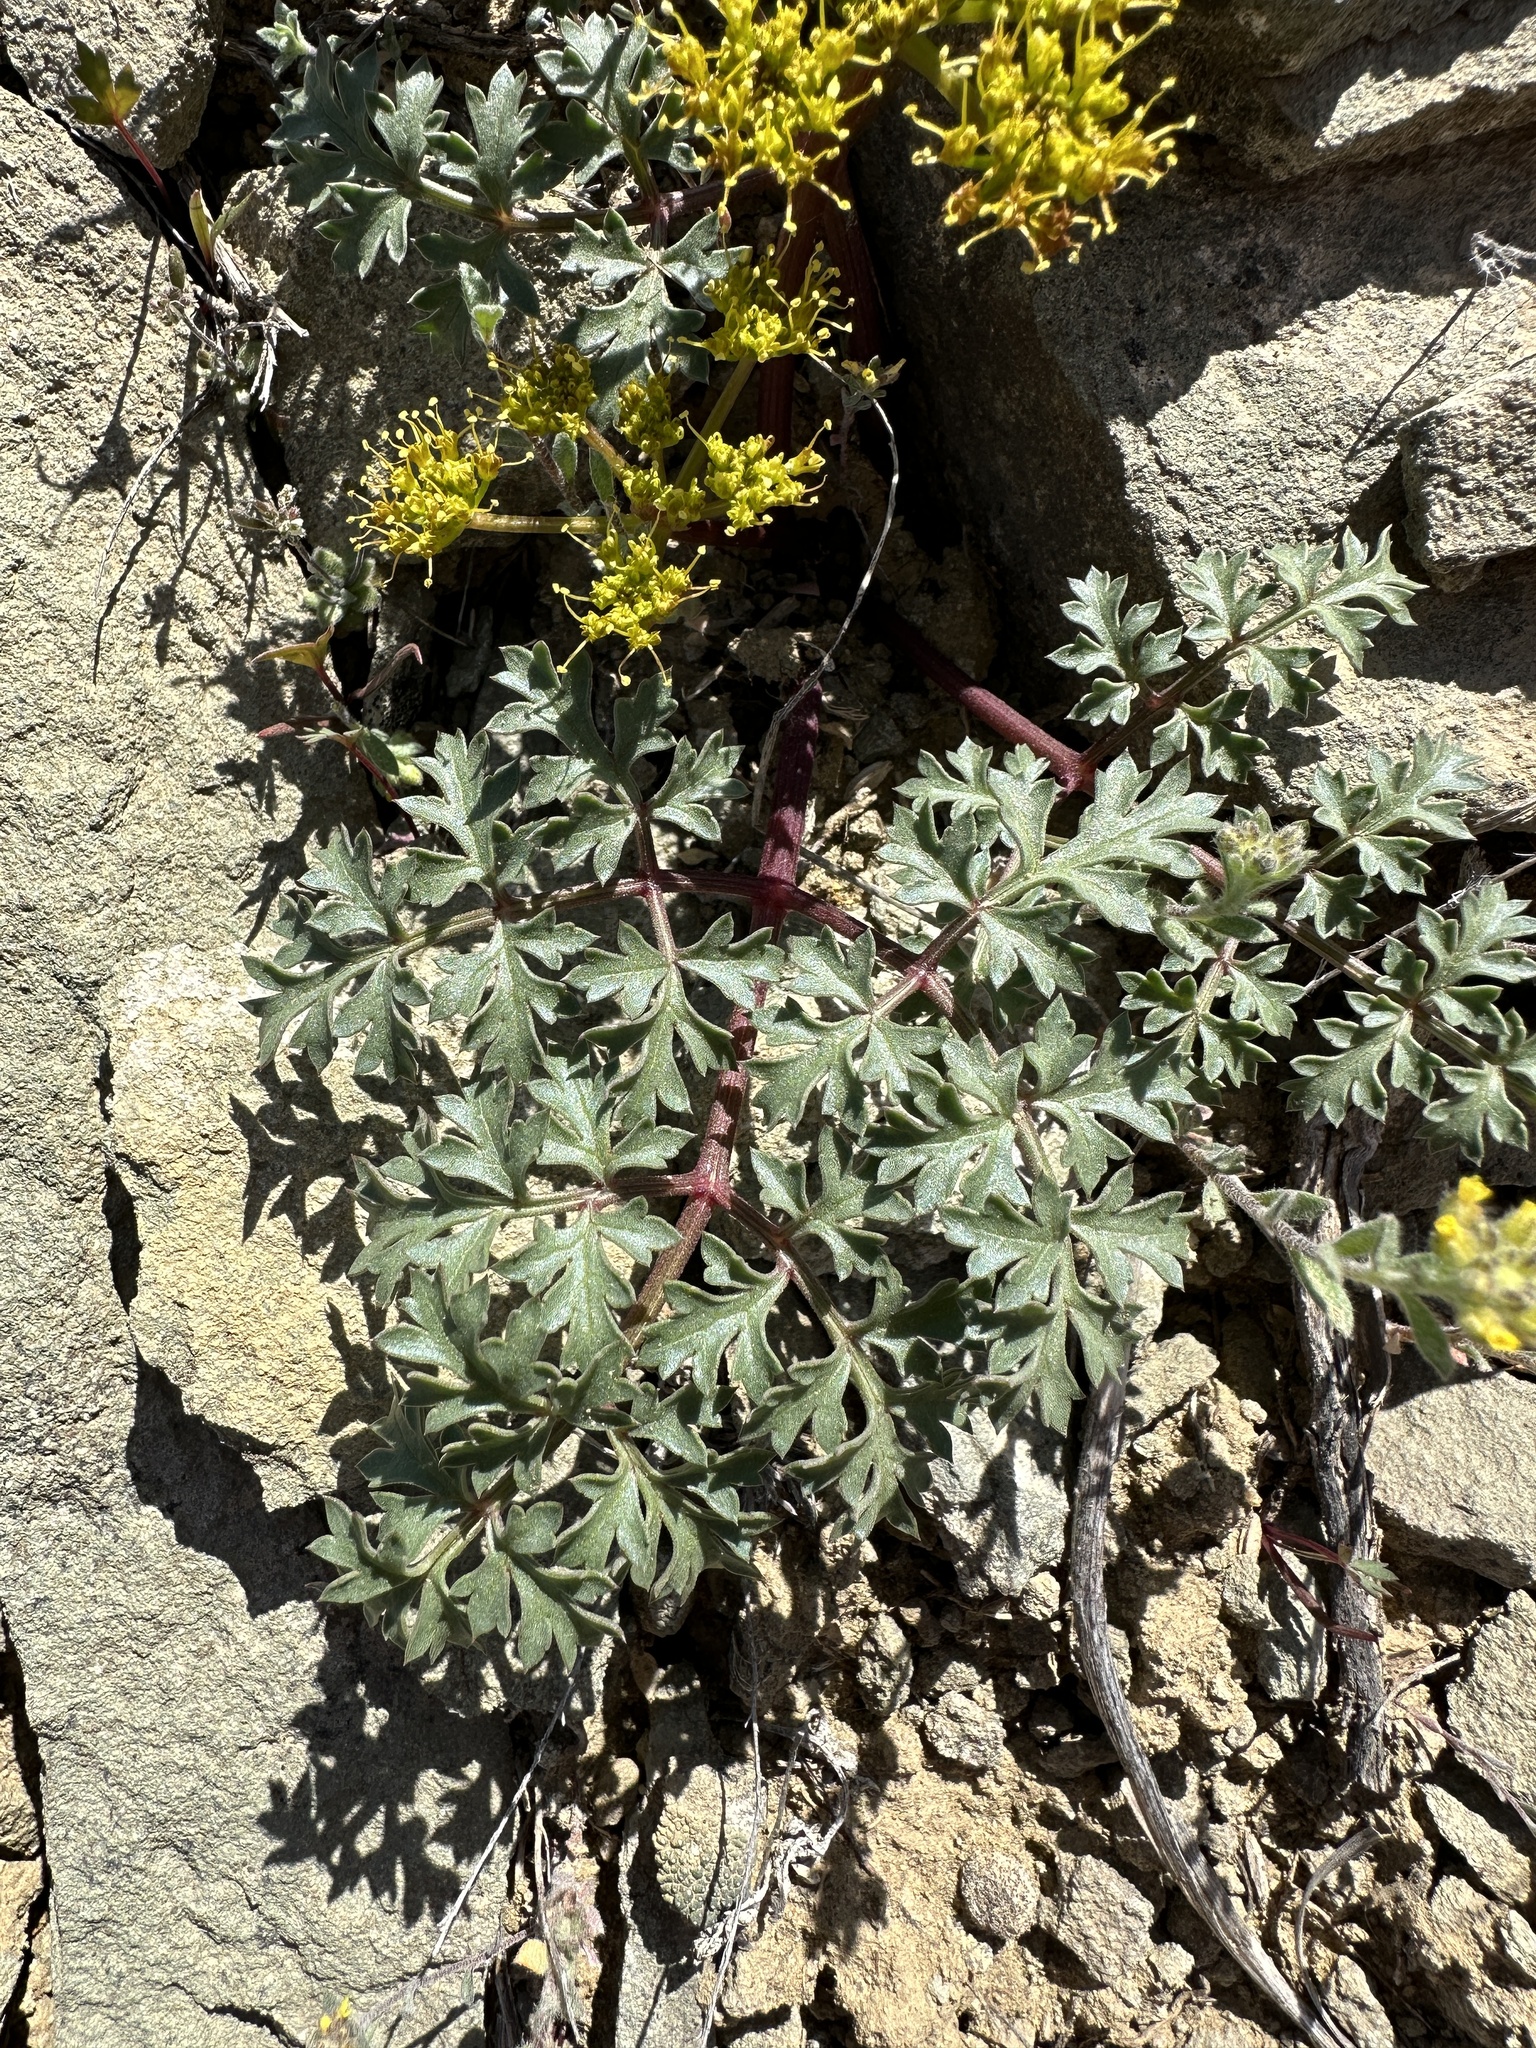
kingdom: Plantae
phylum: Tracheophyta
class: Magnoliopsida
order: Apiales
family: Apiaceae
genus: Aulospermum
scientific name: Aulospermum purpureum
